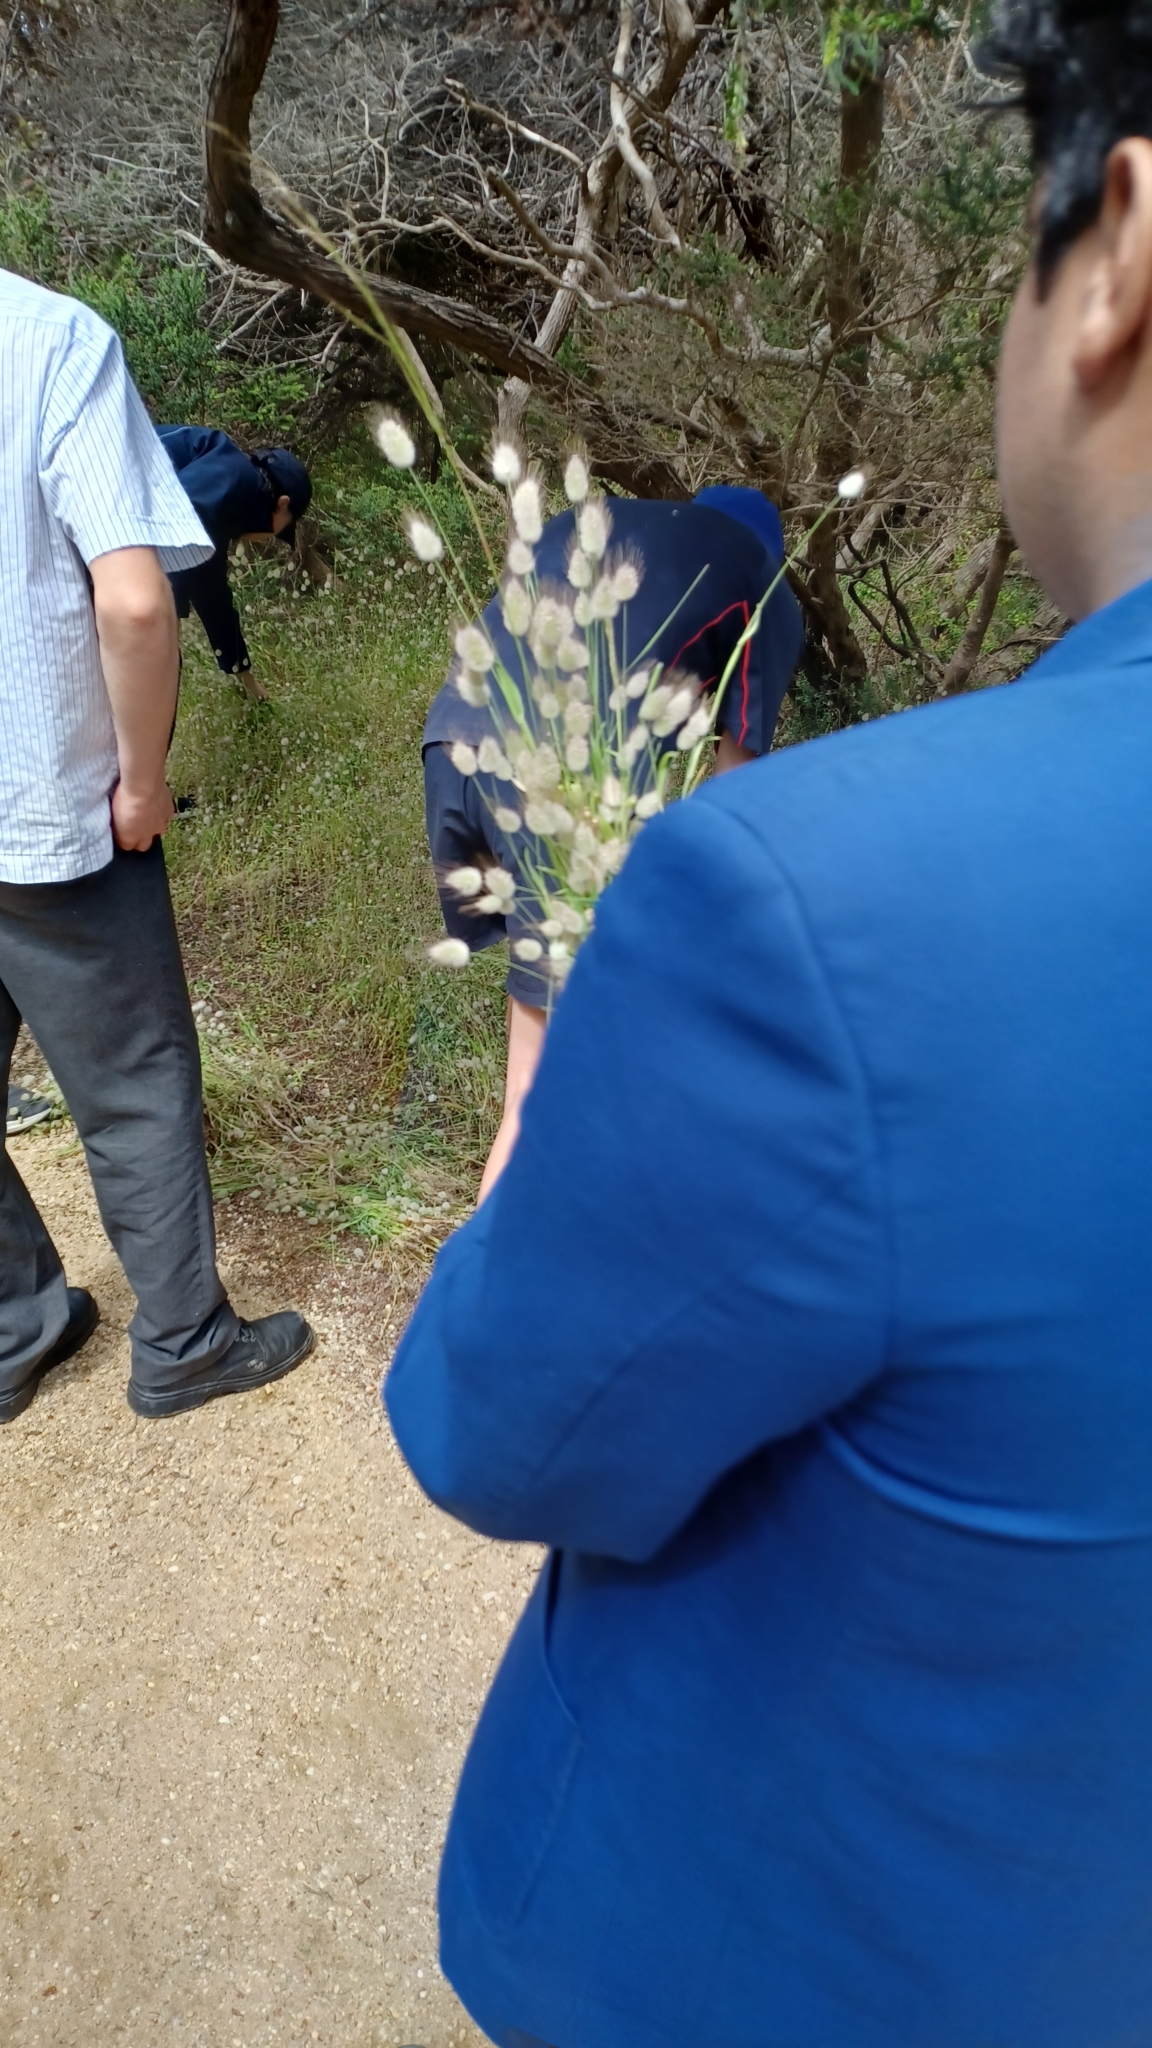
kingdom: Plantae
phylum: Tracheophyta
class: Liliopsida
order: Poales
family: Poaceae
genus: Lagurus
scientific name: Lagurus ovatus
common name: Hare's-tail
